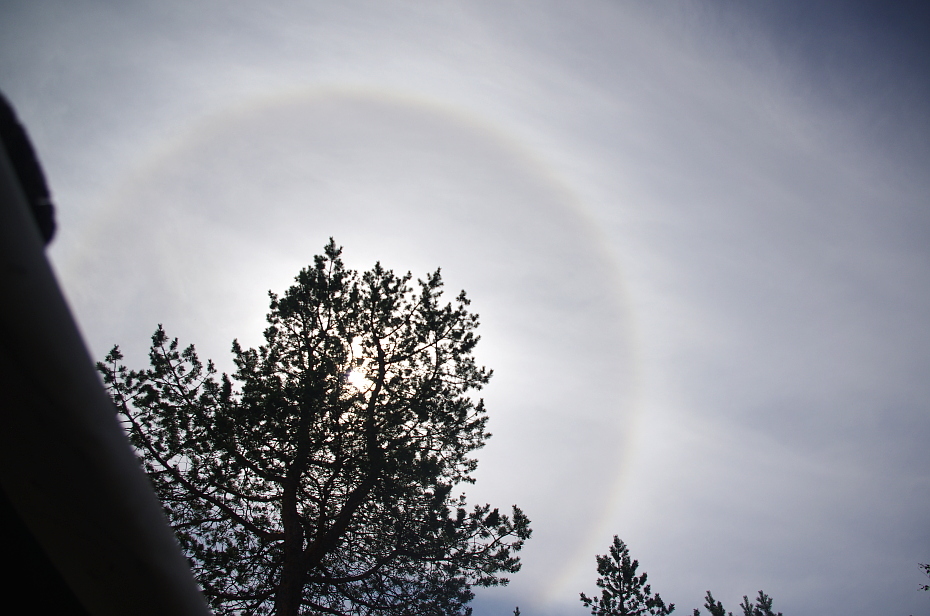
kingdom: Plantae
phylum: Tracheophyta
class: Pinopsida
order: Pinales
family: Pinaceae
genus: Pinus
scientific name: Pinus sylvestris
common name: Scots pine
